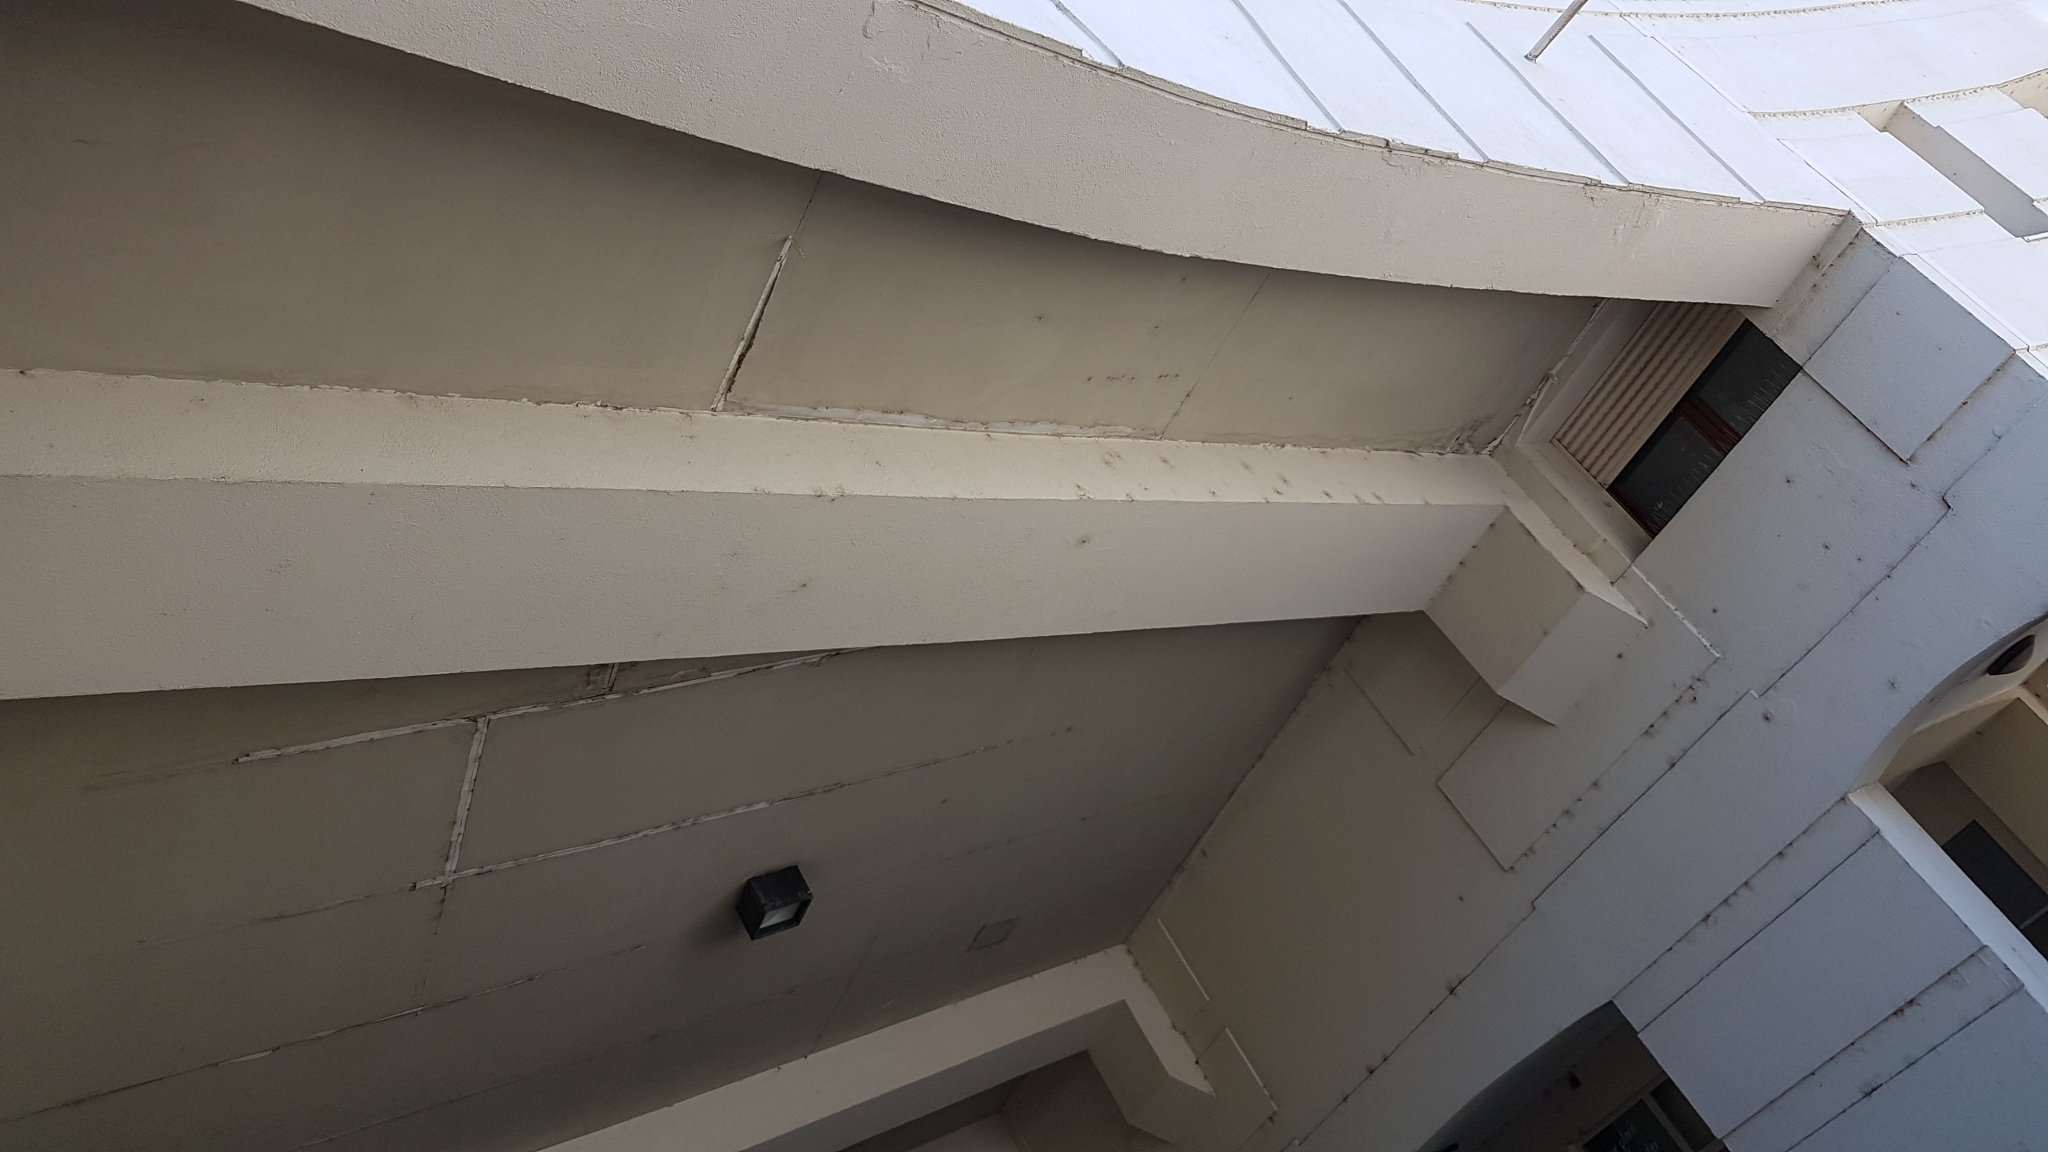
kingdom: Animalia
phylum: Arthropoda
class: Arachnida
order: Araneae
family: Dictynidae
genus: Brigittea
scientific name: Brigittea civica
